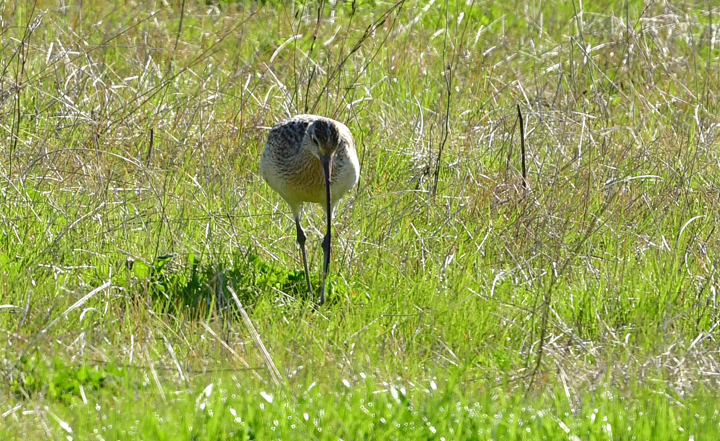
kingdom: Animalia
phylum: Chordata
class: Aves
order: Charadriiformes
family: Scolopacidae
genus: Numenius
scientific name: Numenius americanus
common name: Long-billed curlew
